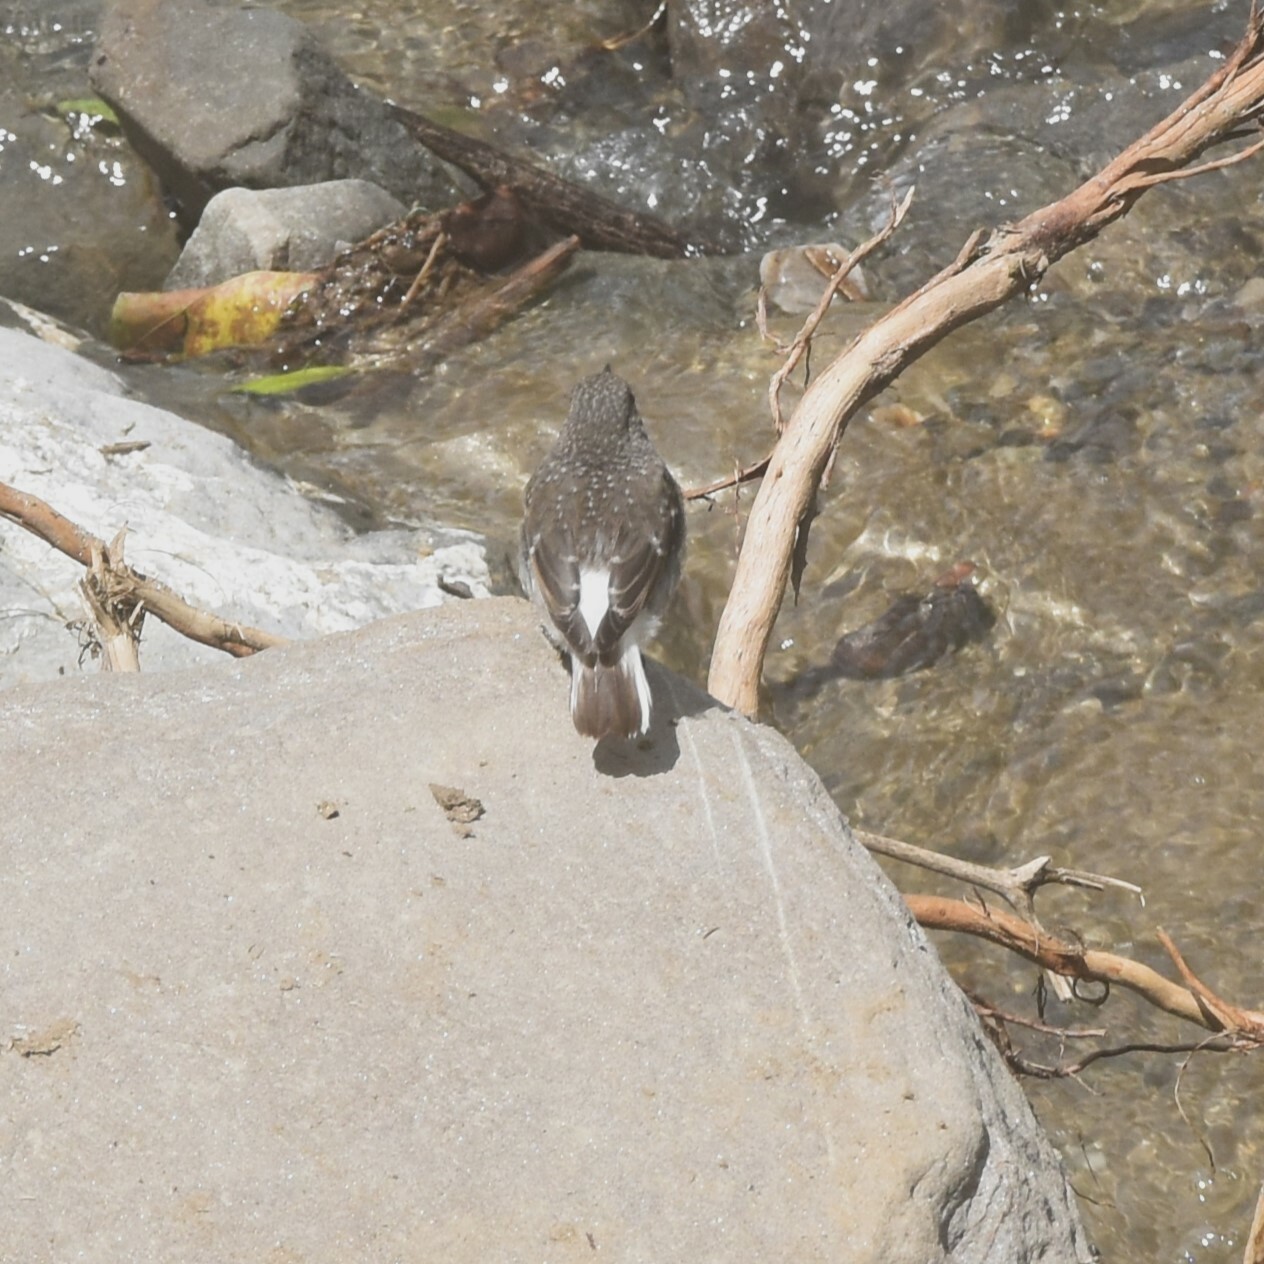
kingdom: Animalia
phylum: Chordata
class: Aves
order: Passeriformes
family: Muscicapidae
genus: Phoenicurus
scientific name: Phoenicurus fuliginosus
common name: Plumbeous water redstart
